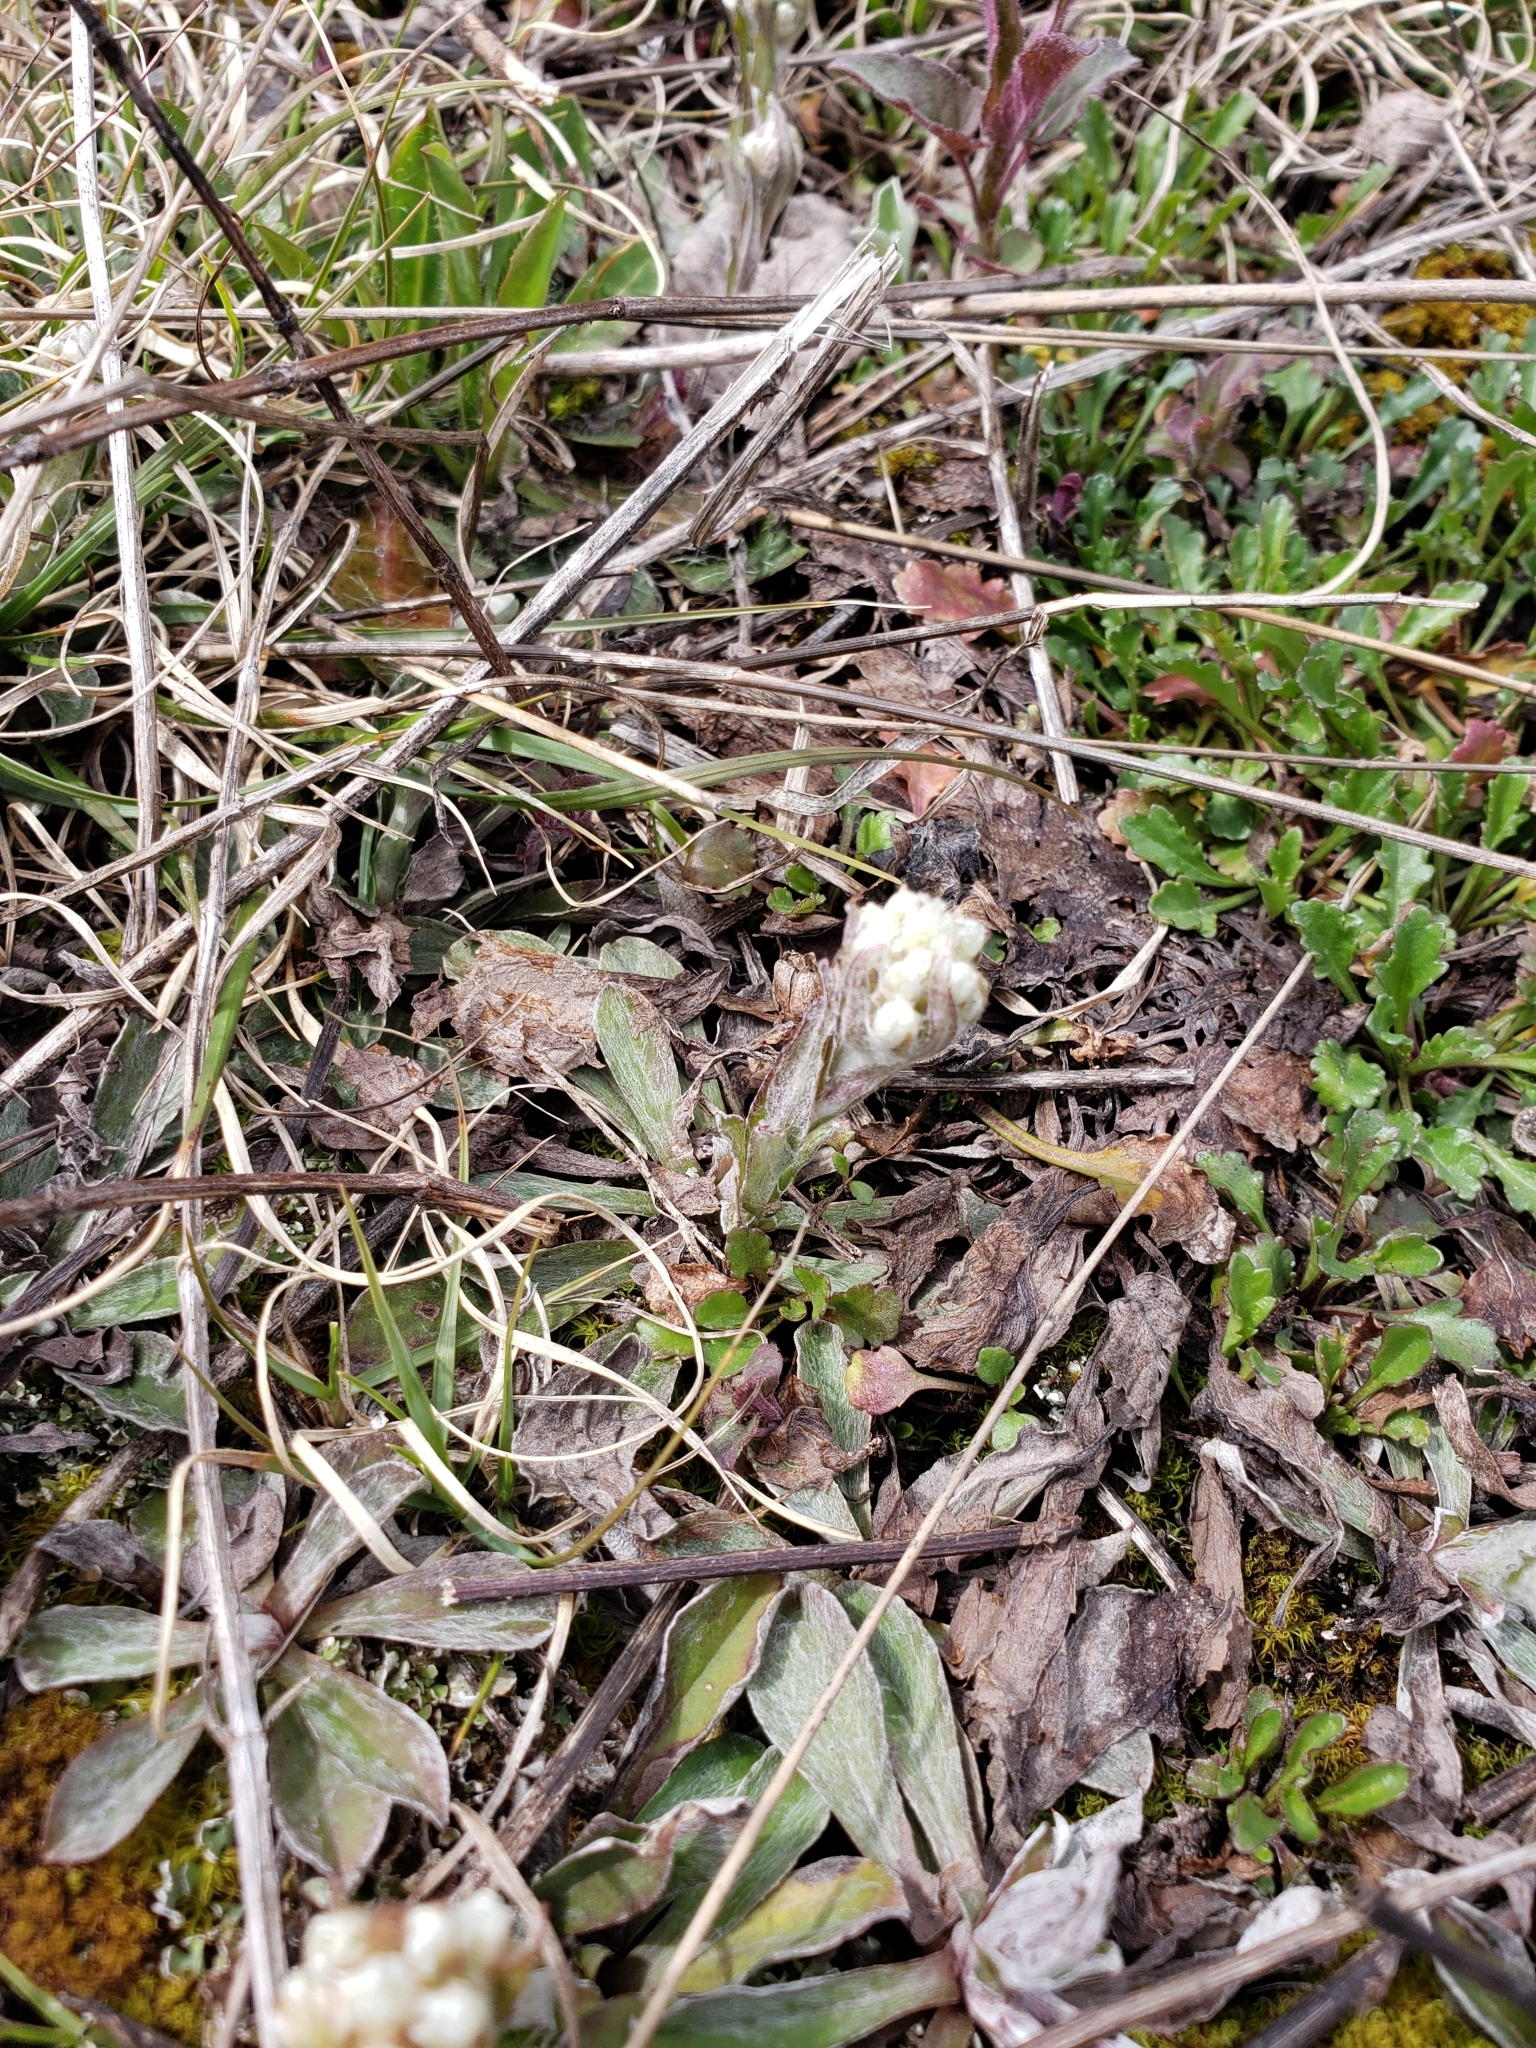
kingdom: Plantae
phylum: Tracheophyta
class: Magnoliopsida
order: Asterales
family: Asteraceae
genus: Antennaria
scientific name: Antennaria neglecta
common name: Field pussytoes
